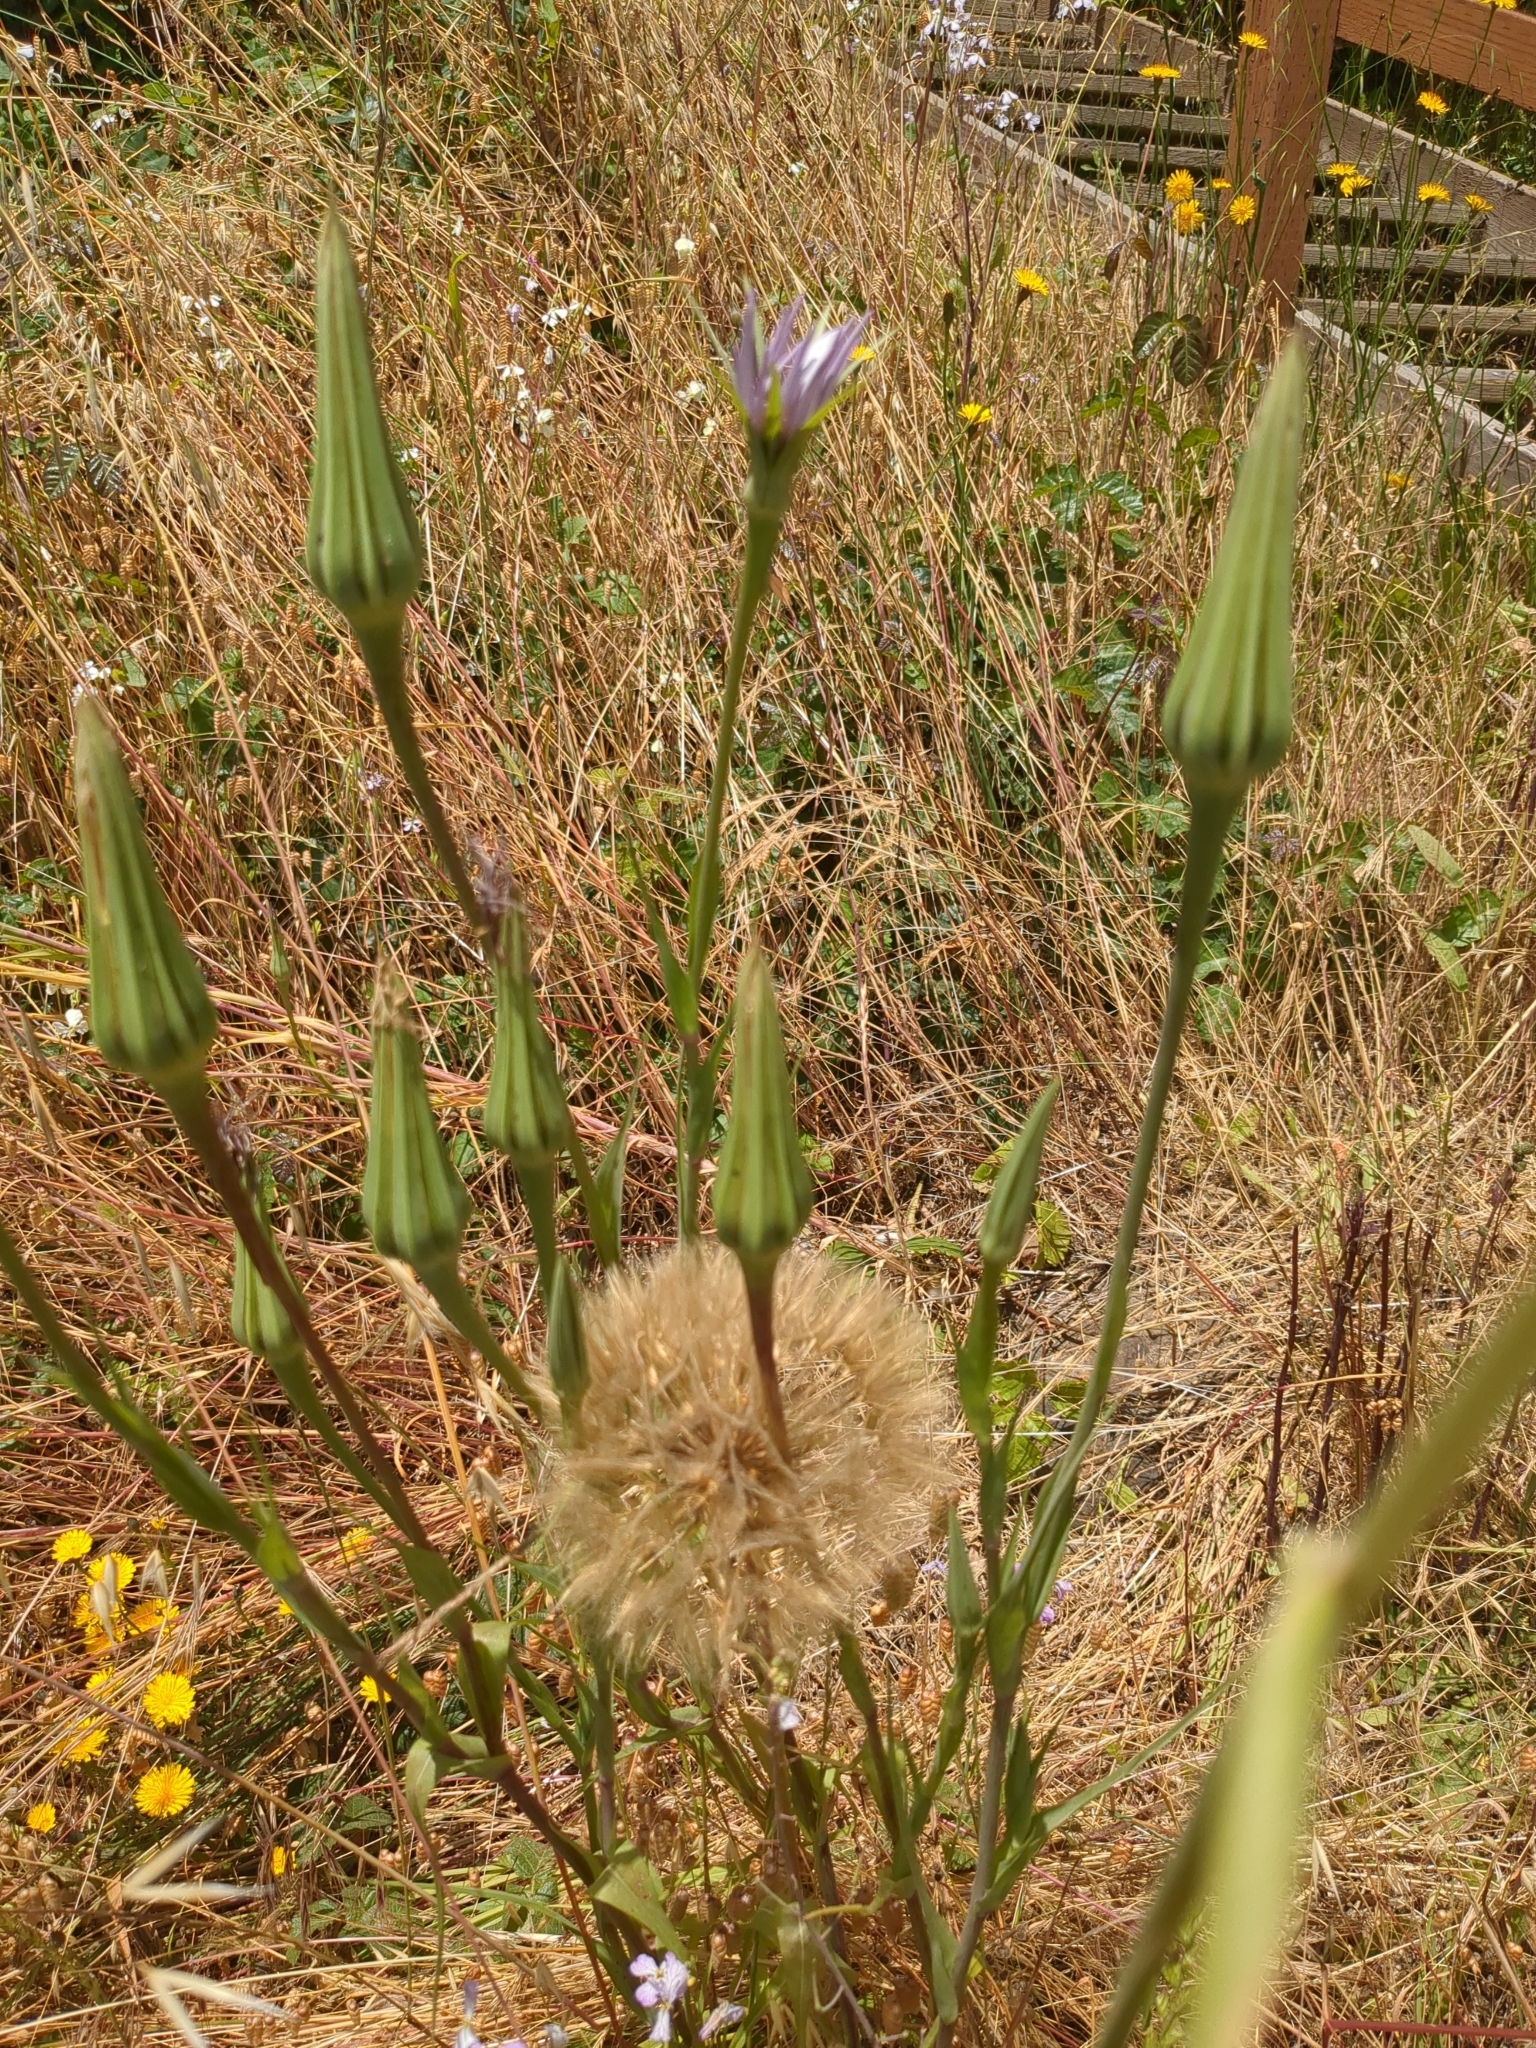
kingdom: Plantae
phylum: Tracheophyta
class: Magnoliopsida
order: Asterales
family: Asteraceae
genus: Tragopogon
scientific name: Tragopogon porrifolius
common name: Salsify
